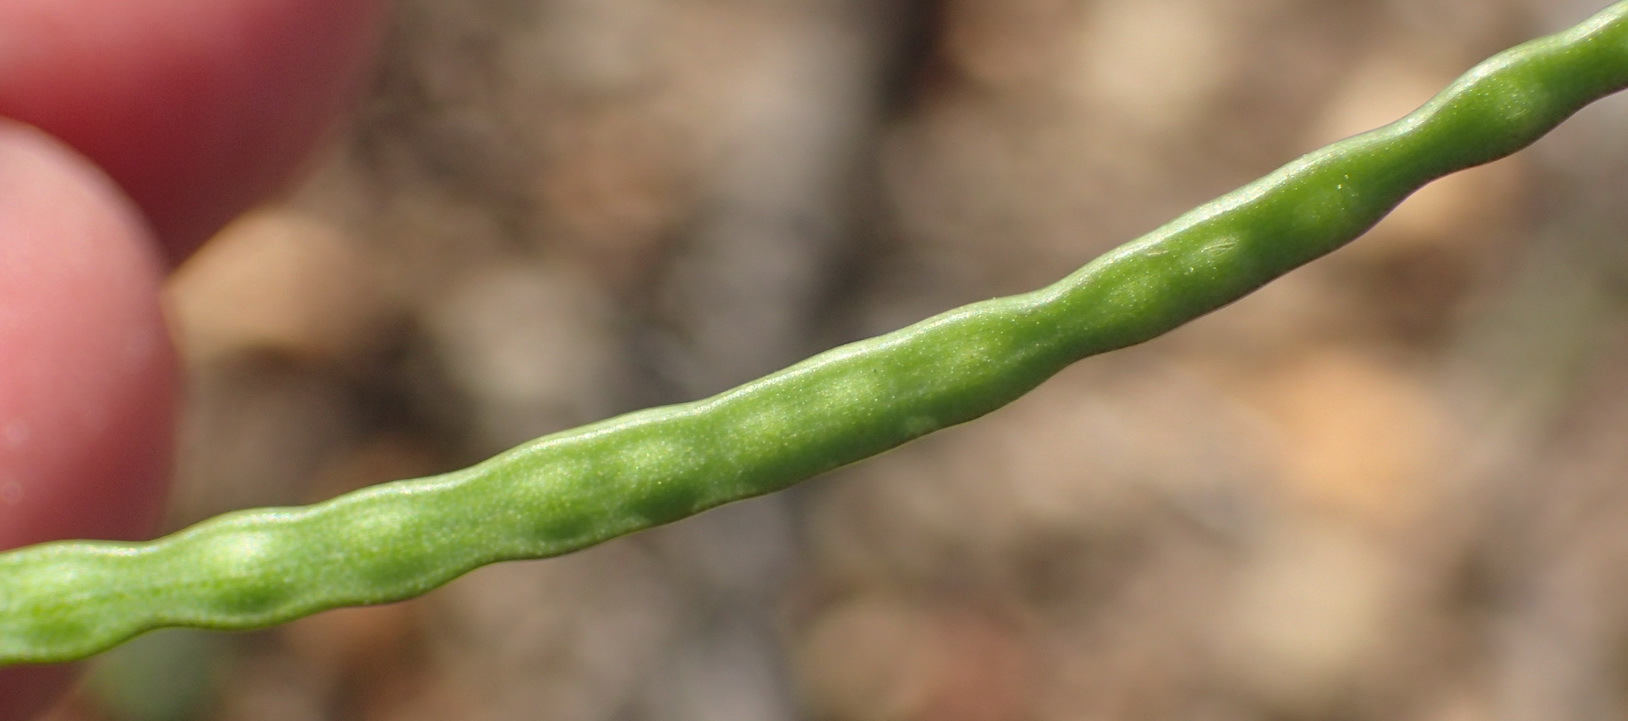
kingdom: Plantae
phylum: Tracheophyta
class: Magnoliopsida
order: Brassicales
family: Brassicaceae
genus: Heliophila
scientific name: Heliophila subulata
